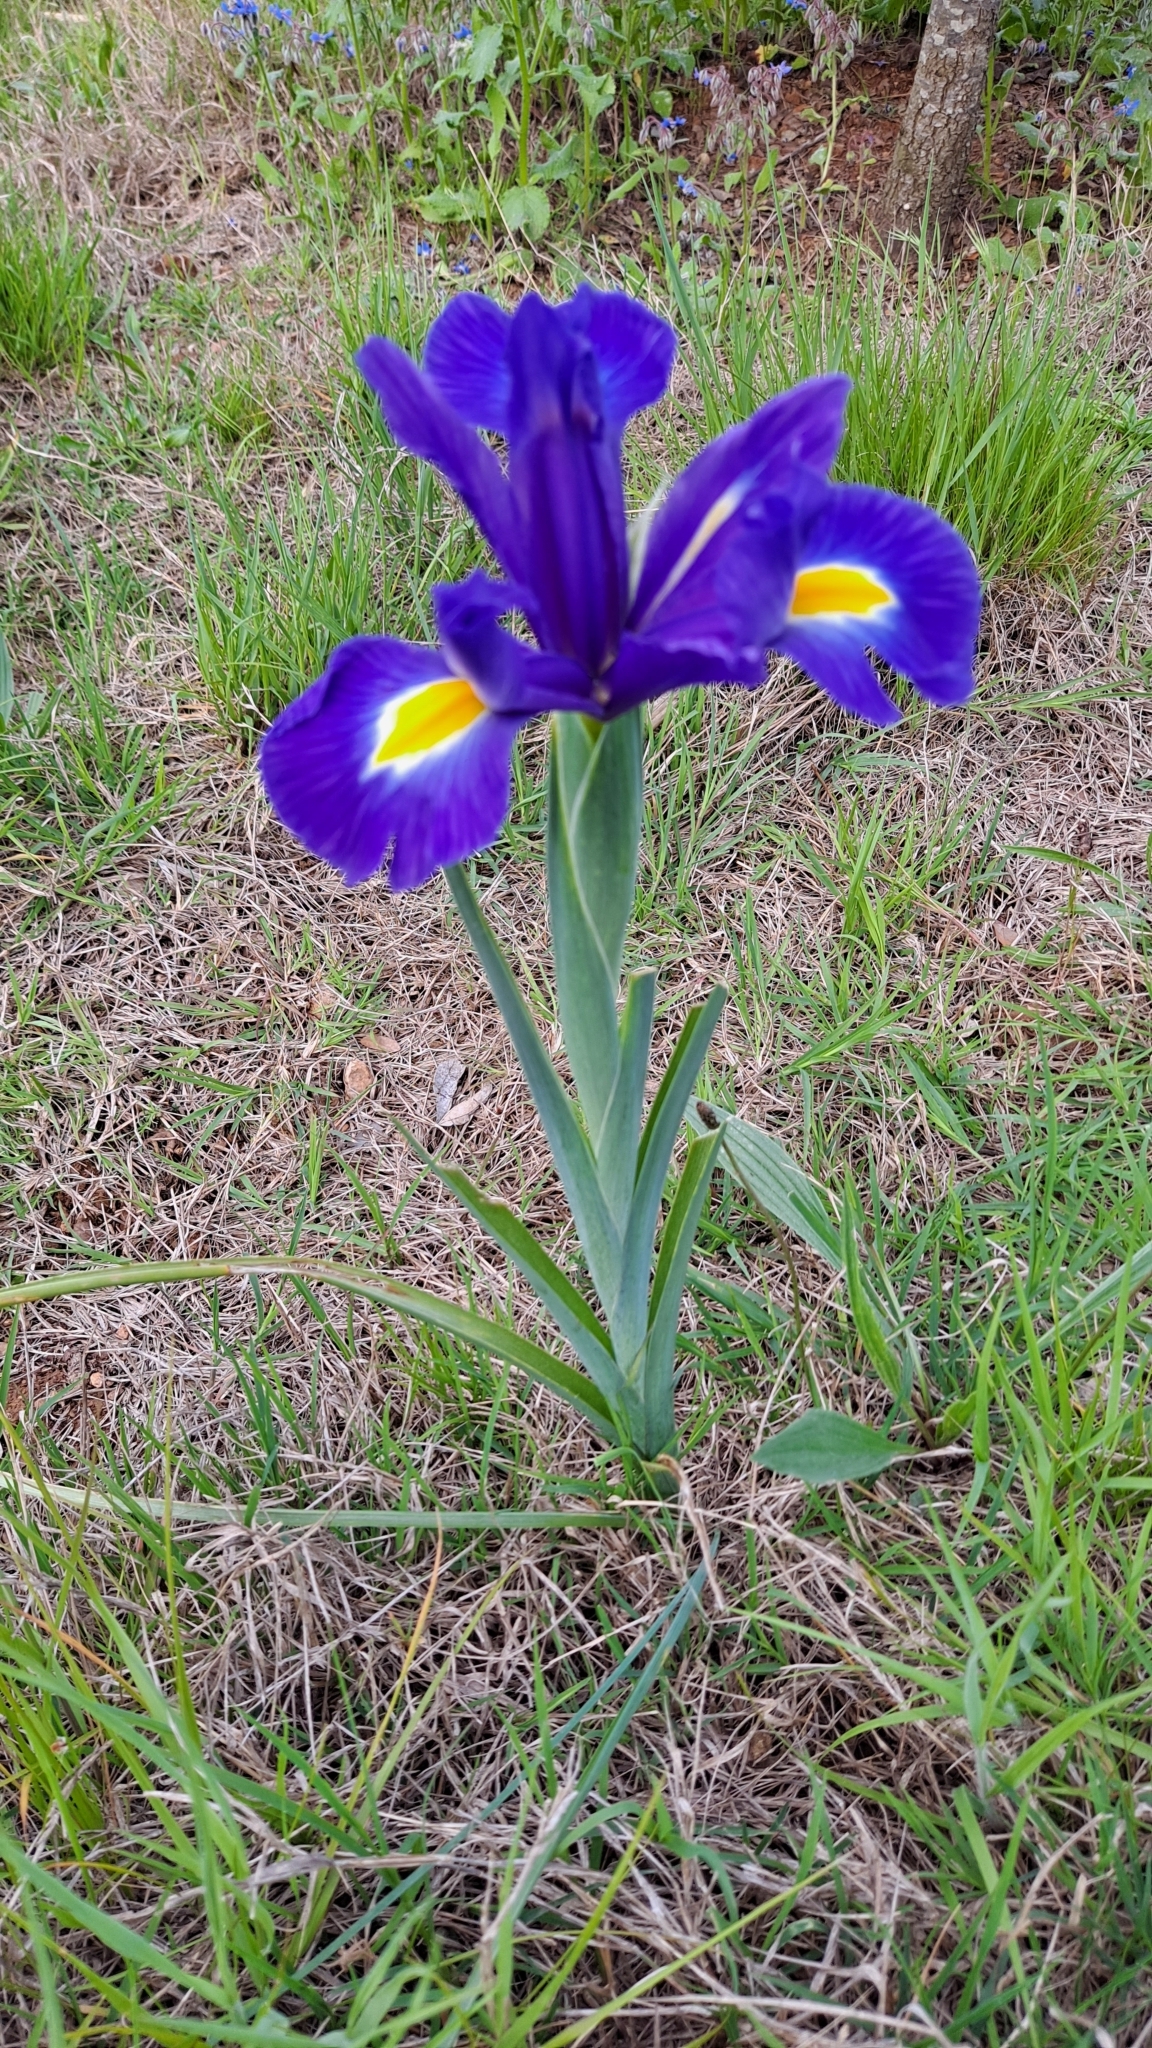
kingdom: Plantae
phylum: Tracheophyta
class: Liliopsida
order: Asparagales
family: Iridaceae
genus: Iris
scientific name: Iris hollandica
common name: Dutch iris
